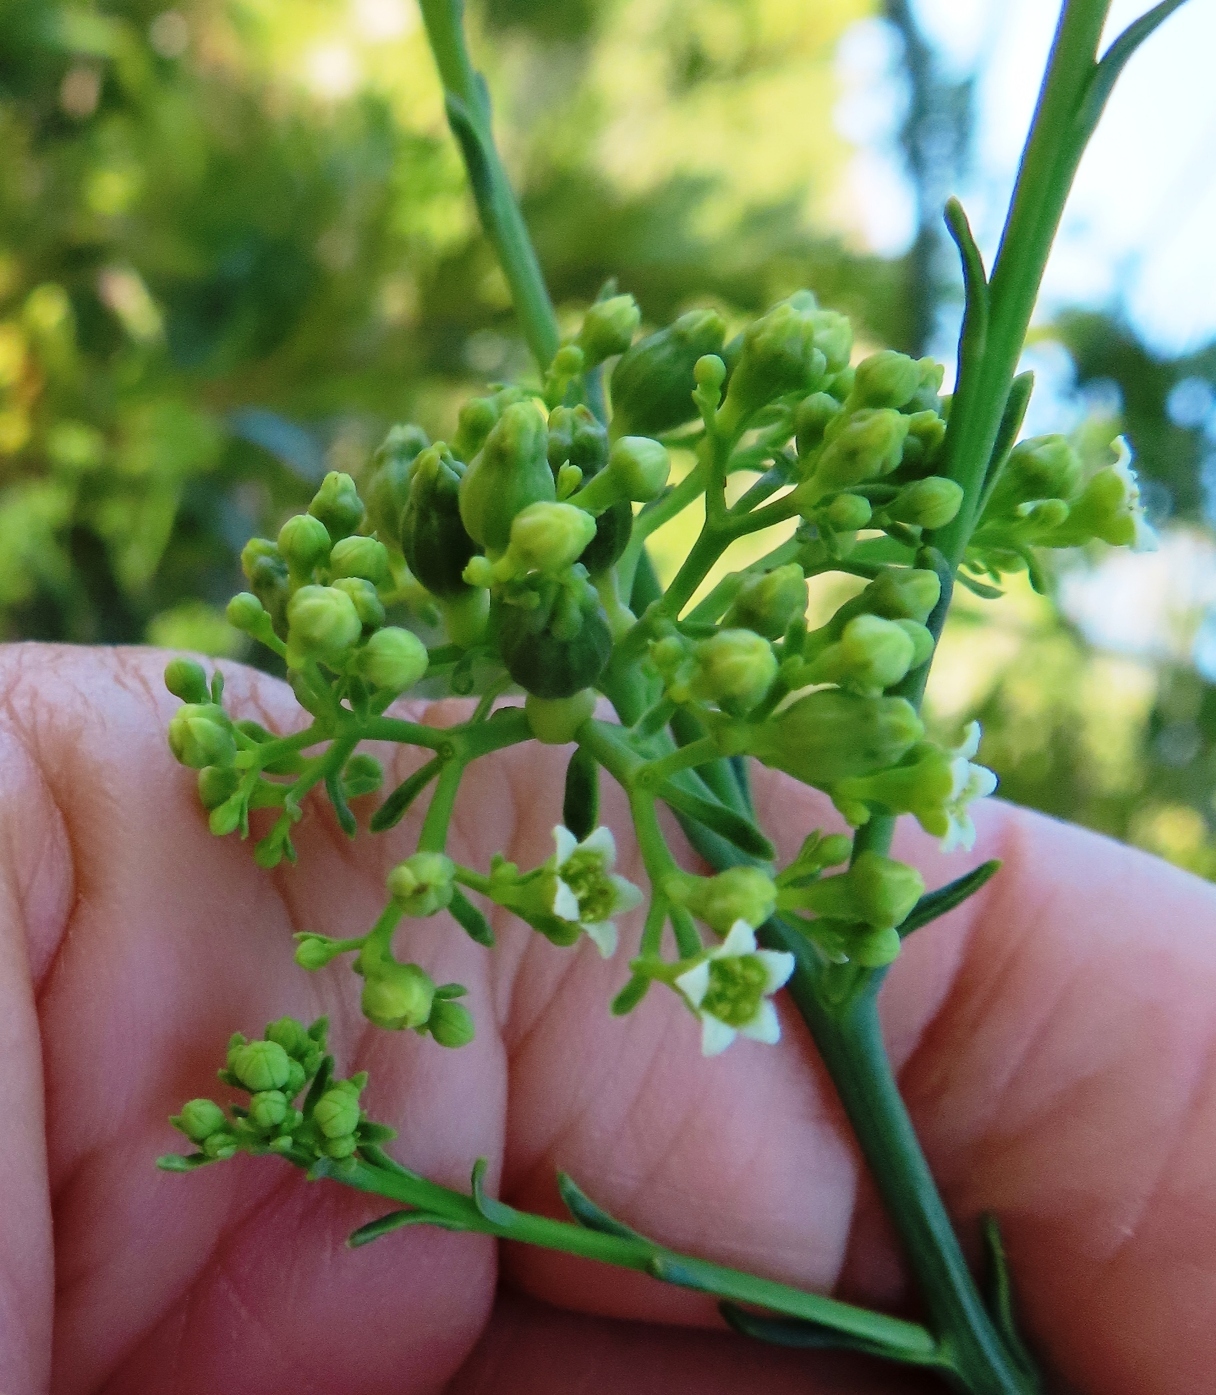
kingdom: Plantae
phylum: Tracheophyta
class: Magnoliopsida
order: Santalales
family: Thesiaceae
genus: Thesium
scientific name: Thesium strictum
